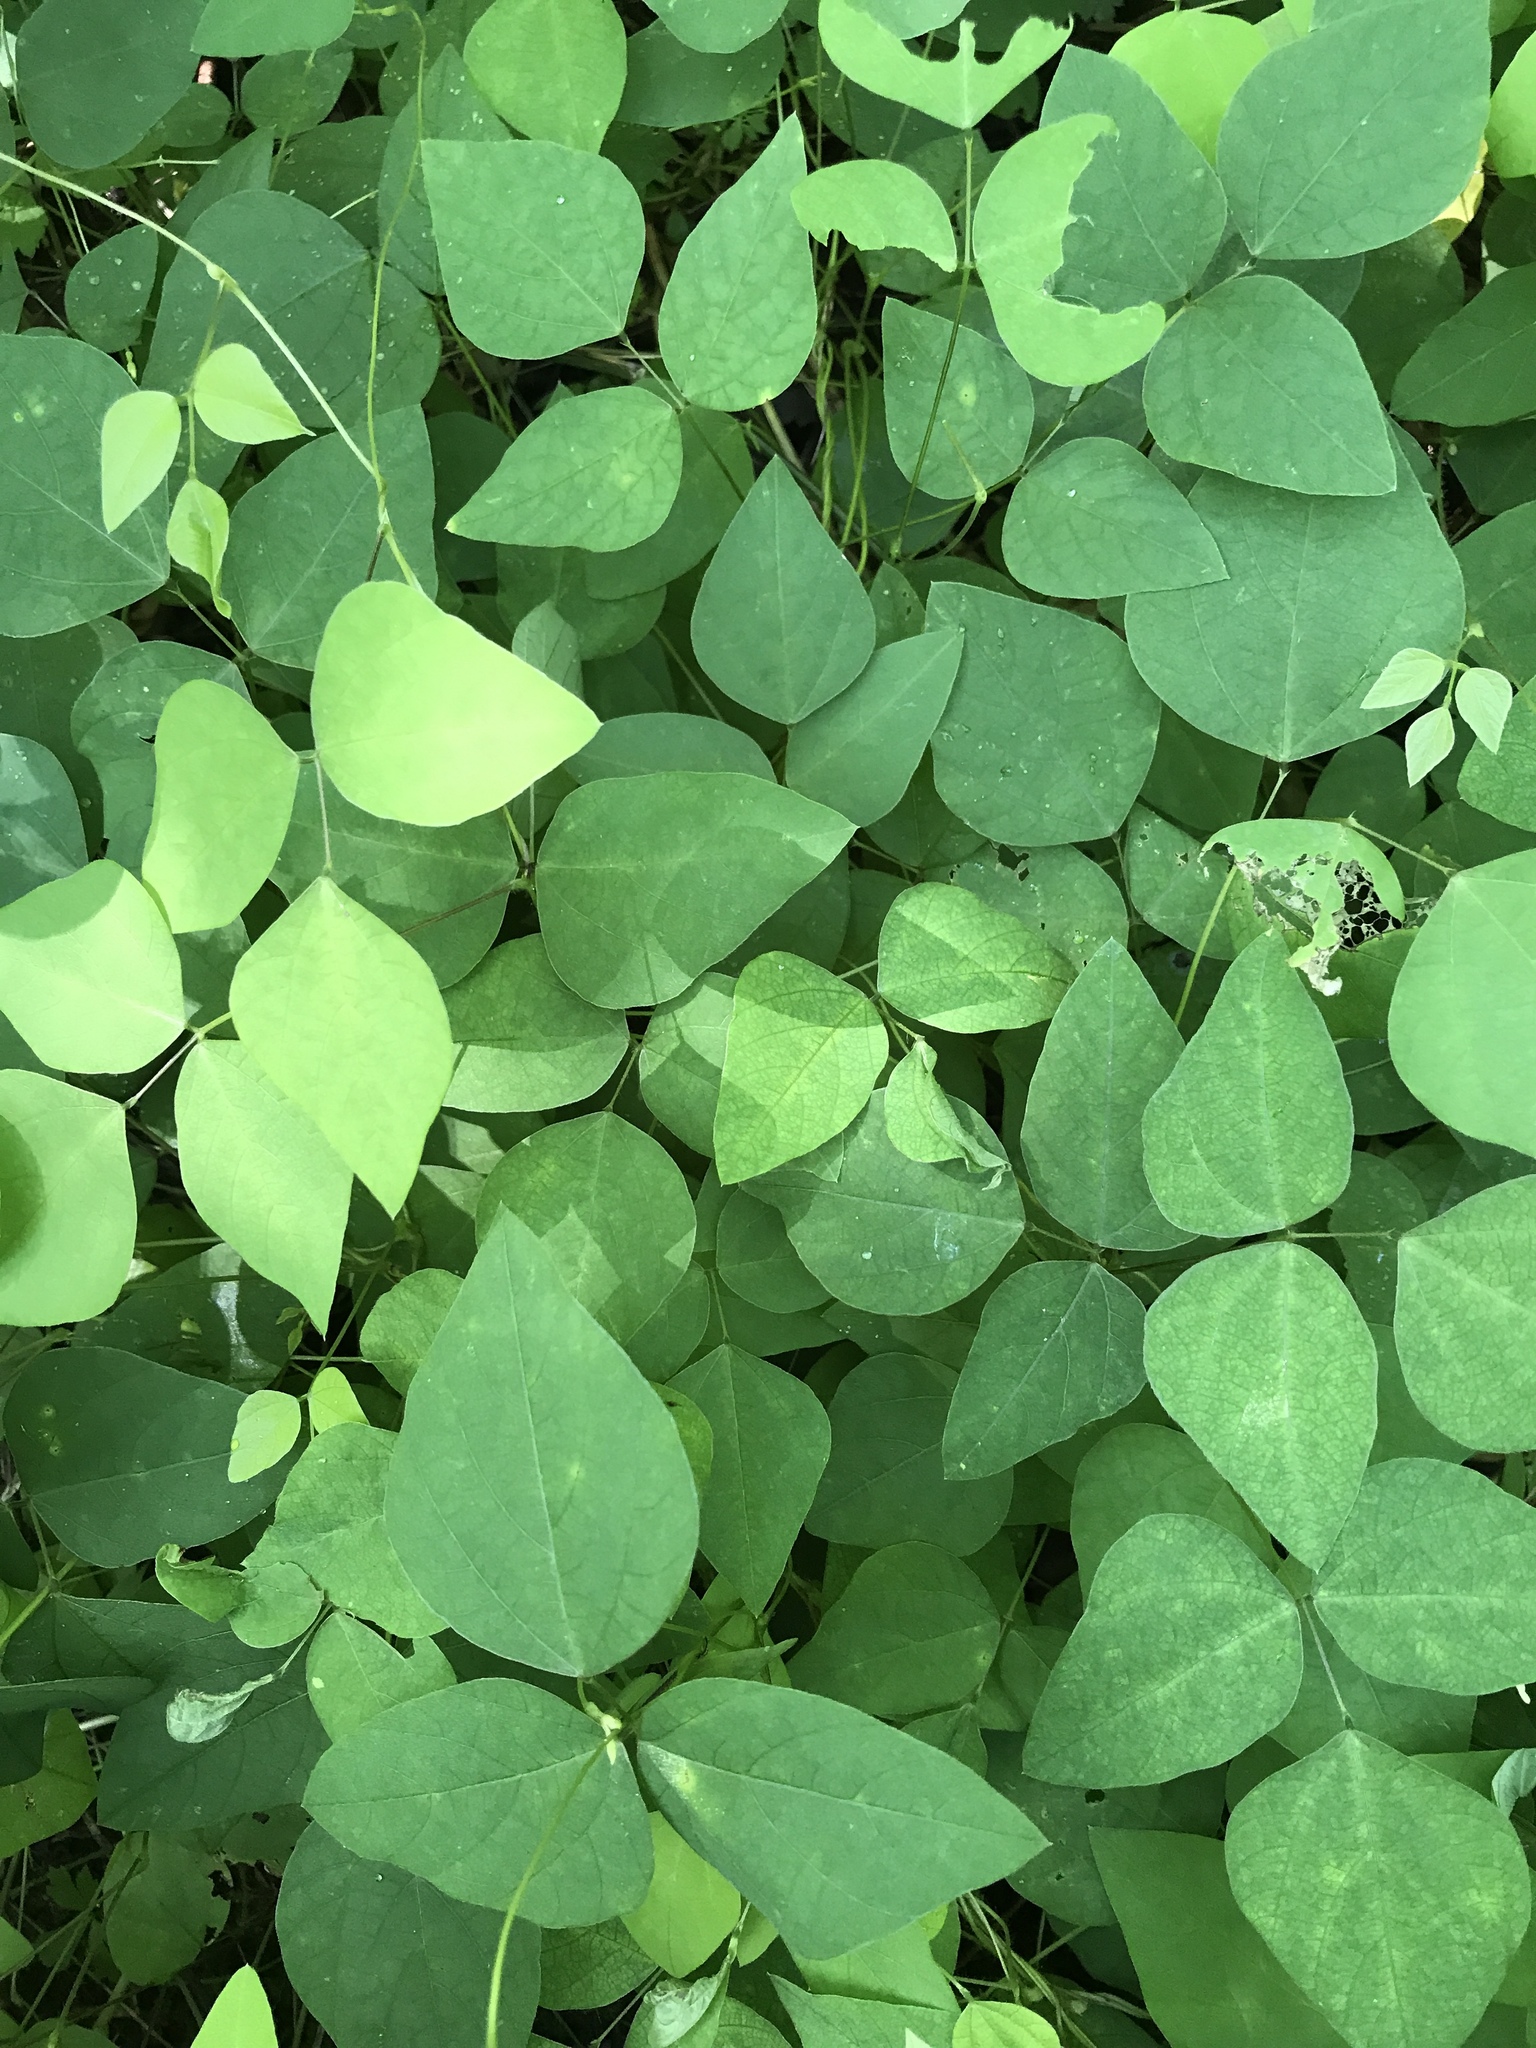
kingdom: Plantae
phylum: Tracheophyta
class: Magnoliopsida
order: Fabales
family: Fabaceae
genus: Amphicarpaea
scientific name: Amphicarpaea bracteata
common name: American hog peanut
